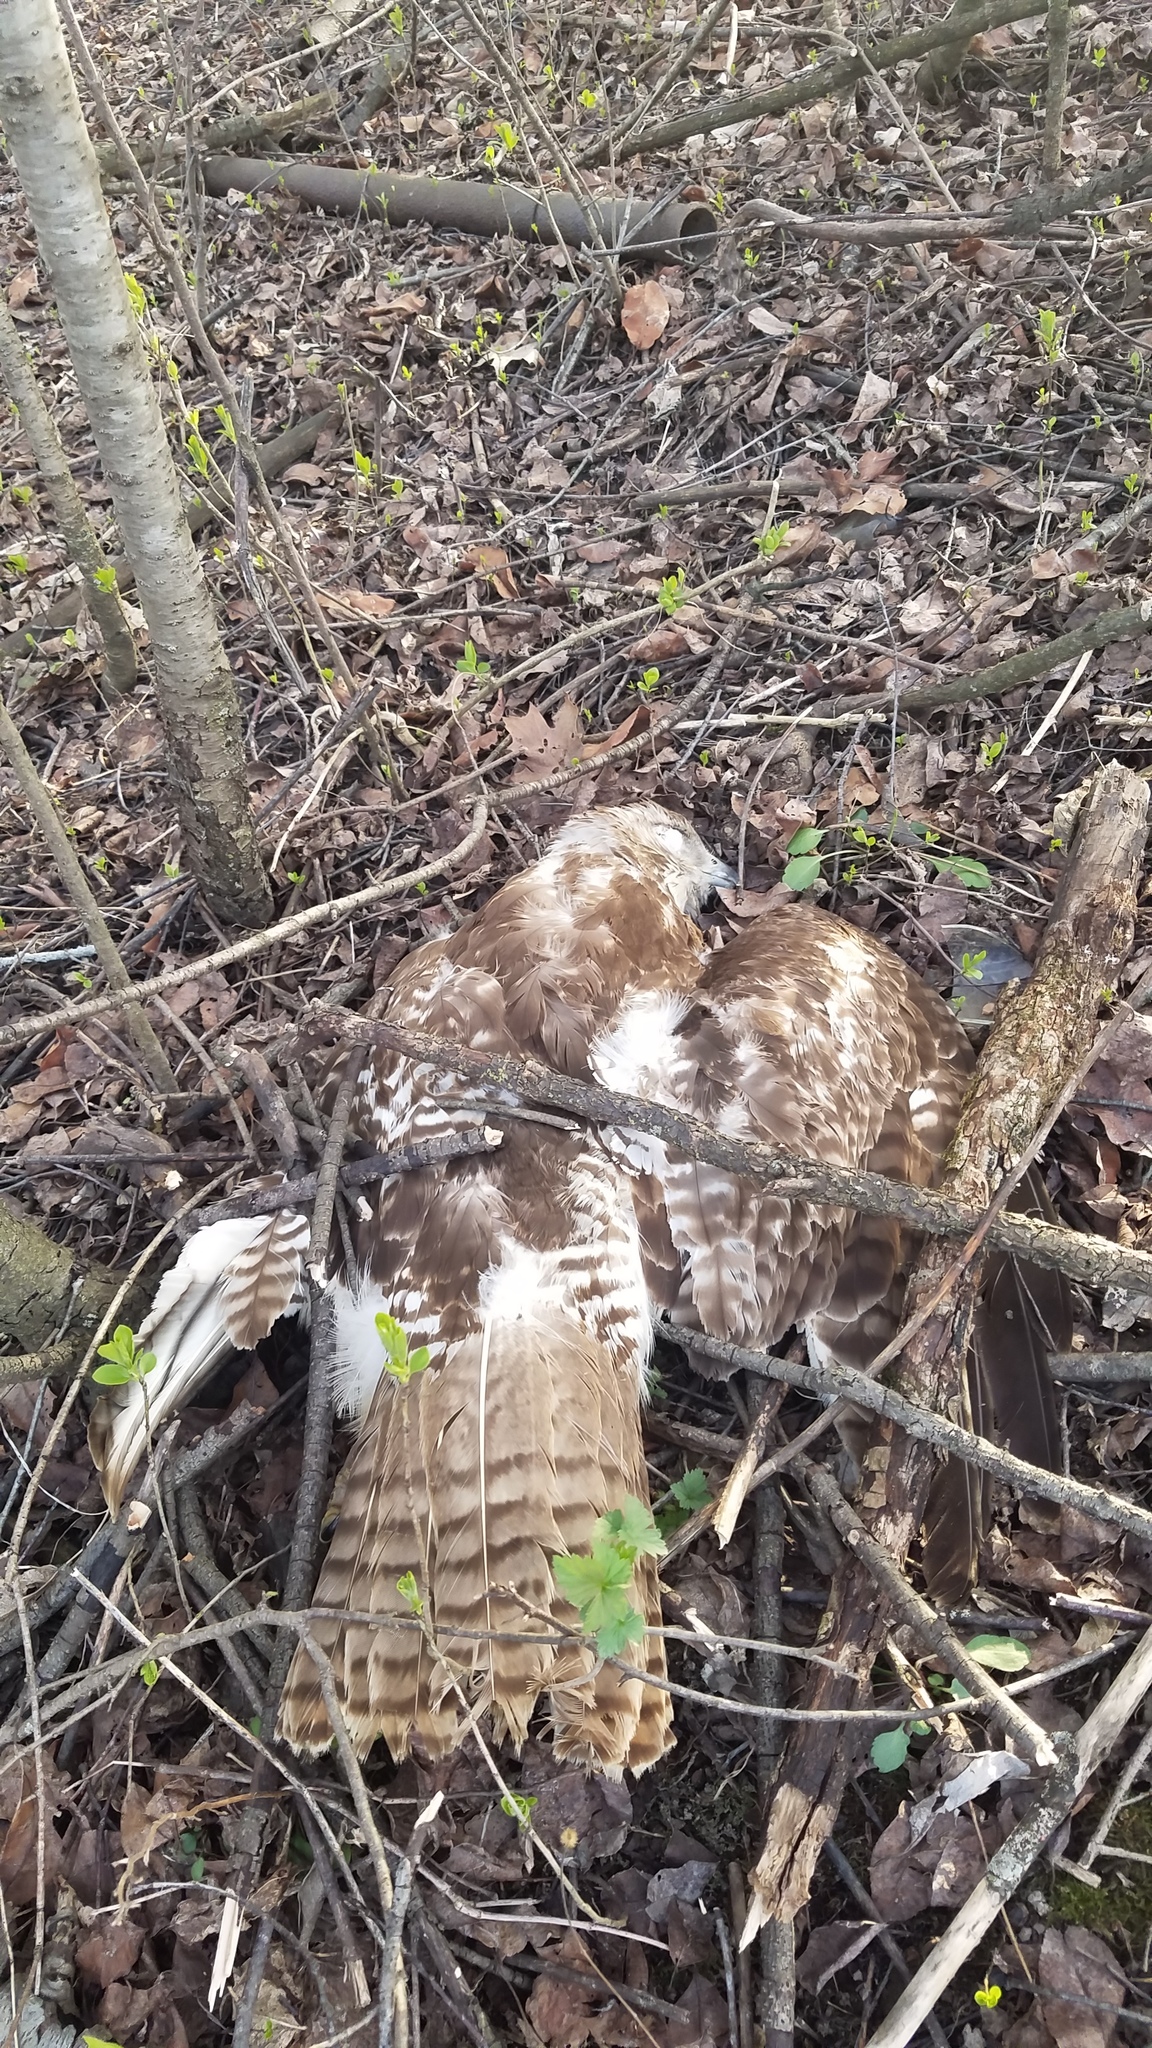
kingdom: Animalia
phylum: Chordata
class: Aves
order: Accipitriformes
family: Accipitridae
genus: Buteo
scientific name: Buteo jamaicensis
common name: Red-tailed hawk
